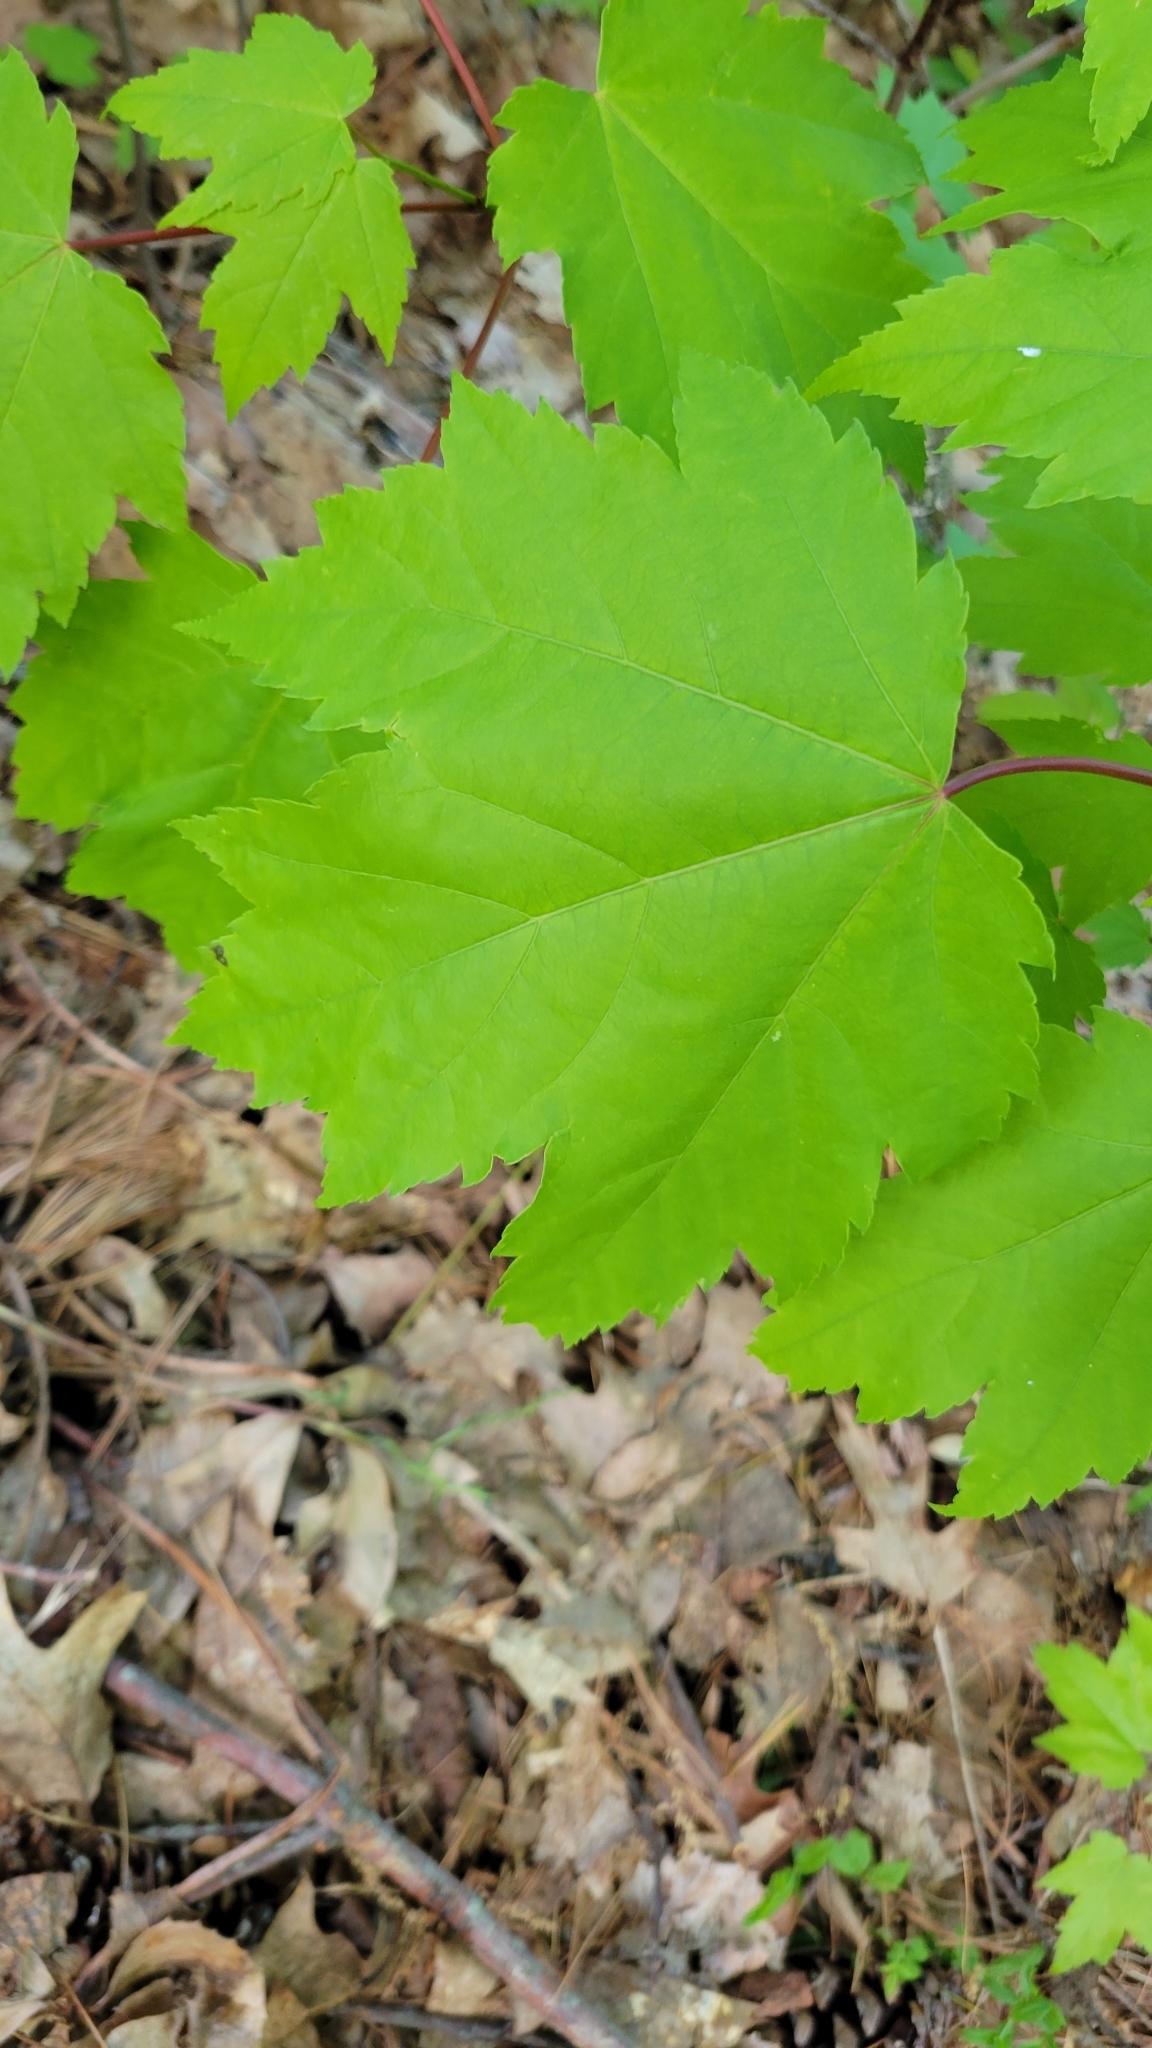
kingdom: Plantae
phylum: Tracheophyta
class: Magnoliopsida
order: Sapindales
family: Sapindaceae
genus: Acer
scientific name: Acer rubrum
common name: Red maple
